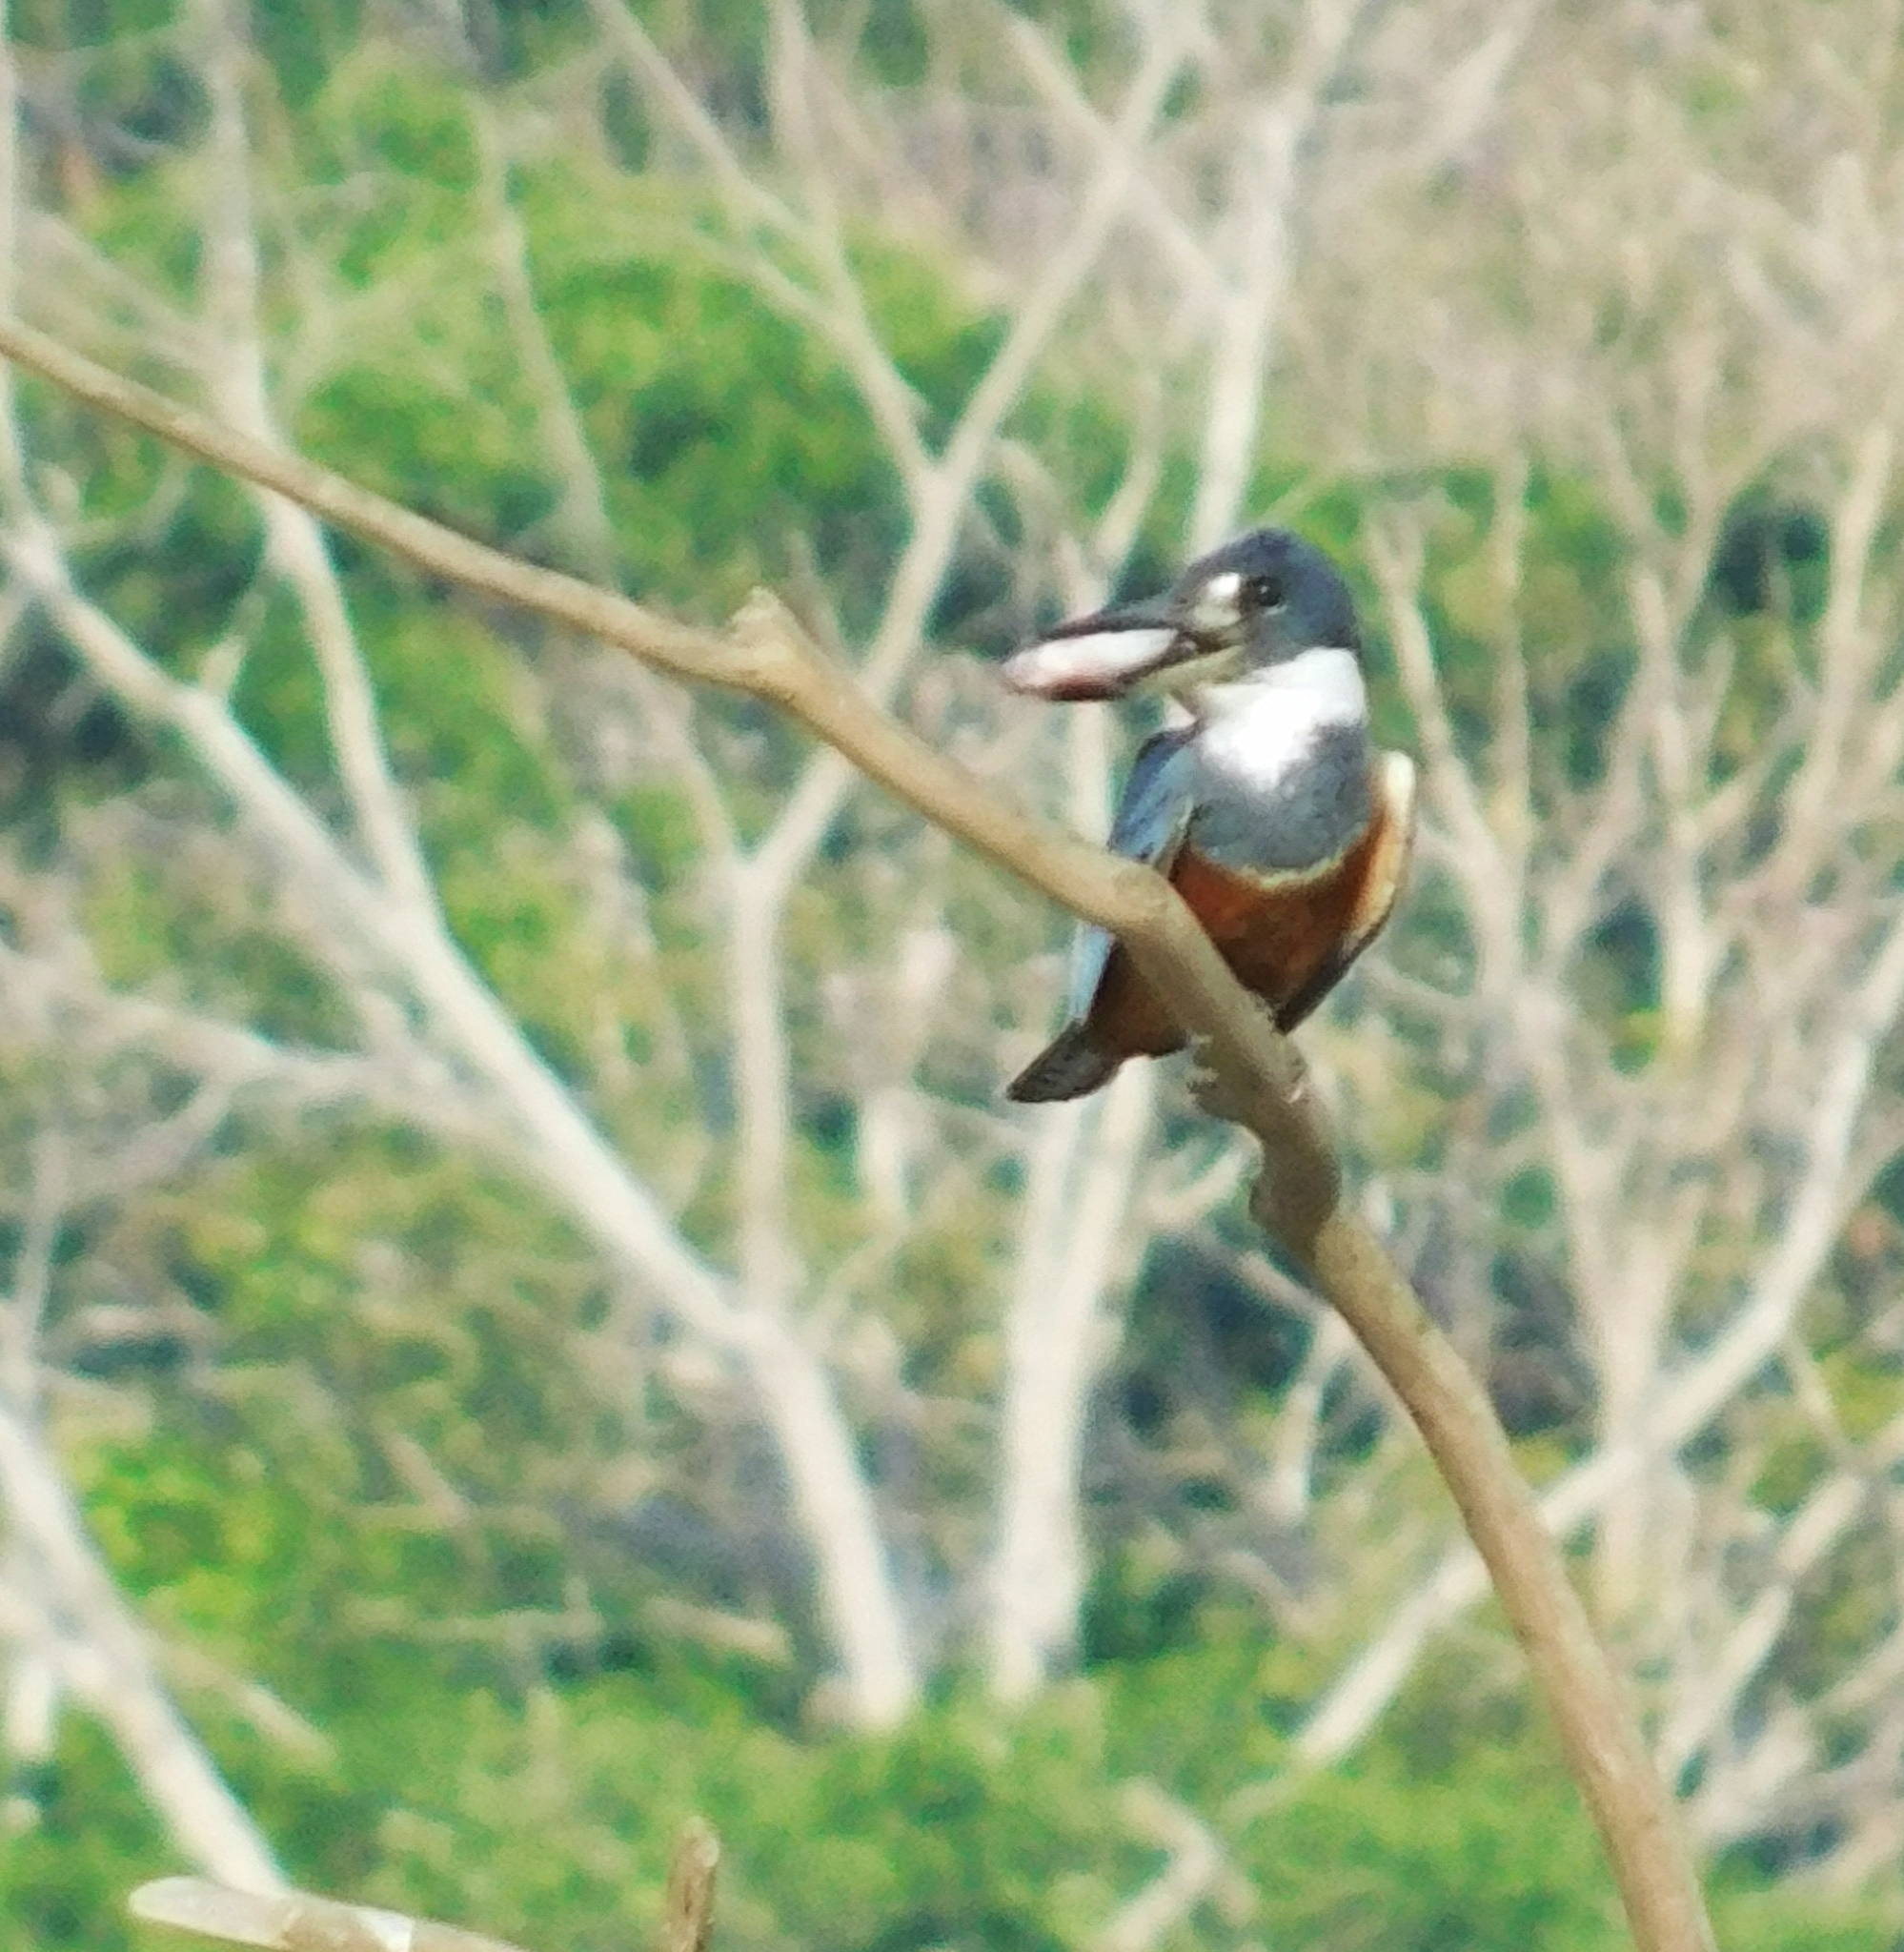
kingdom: Animalia
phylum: Chordata
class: Aves
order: Coraciiformes
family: Alcedinidae
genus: Megaceryle
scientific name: Megaceryle torquata
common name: Ringed kingfisher
